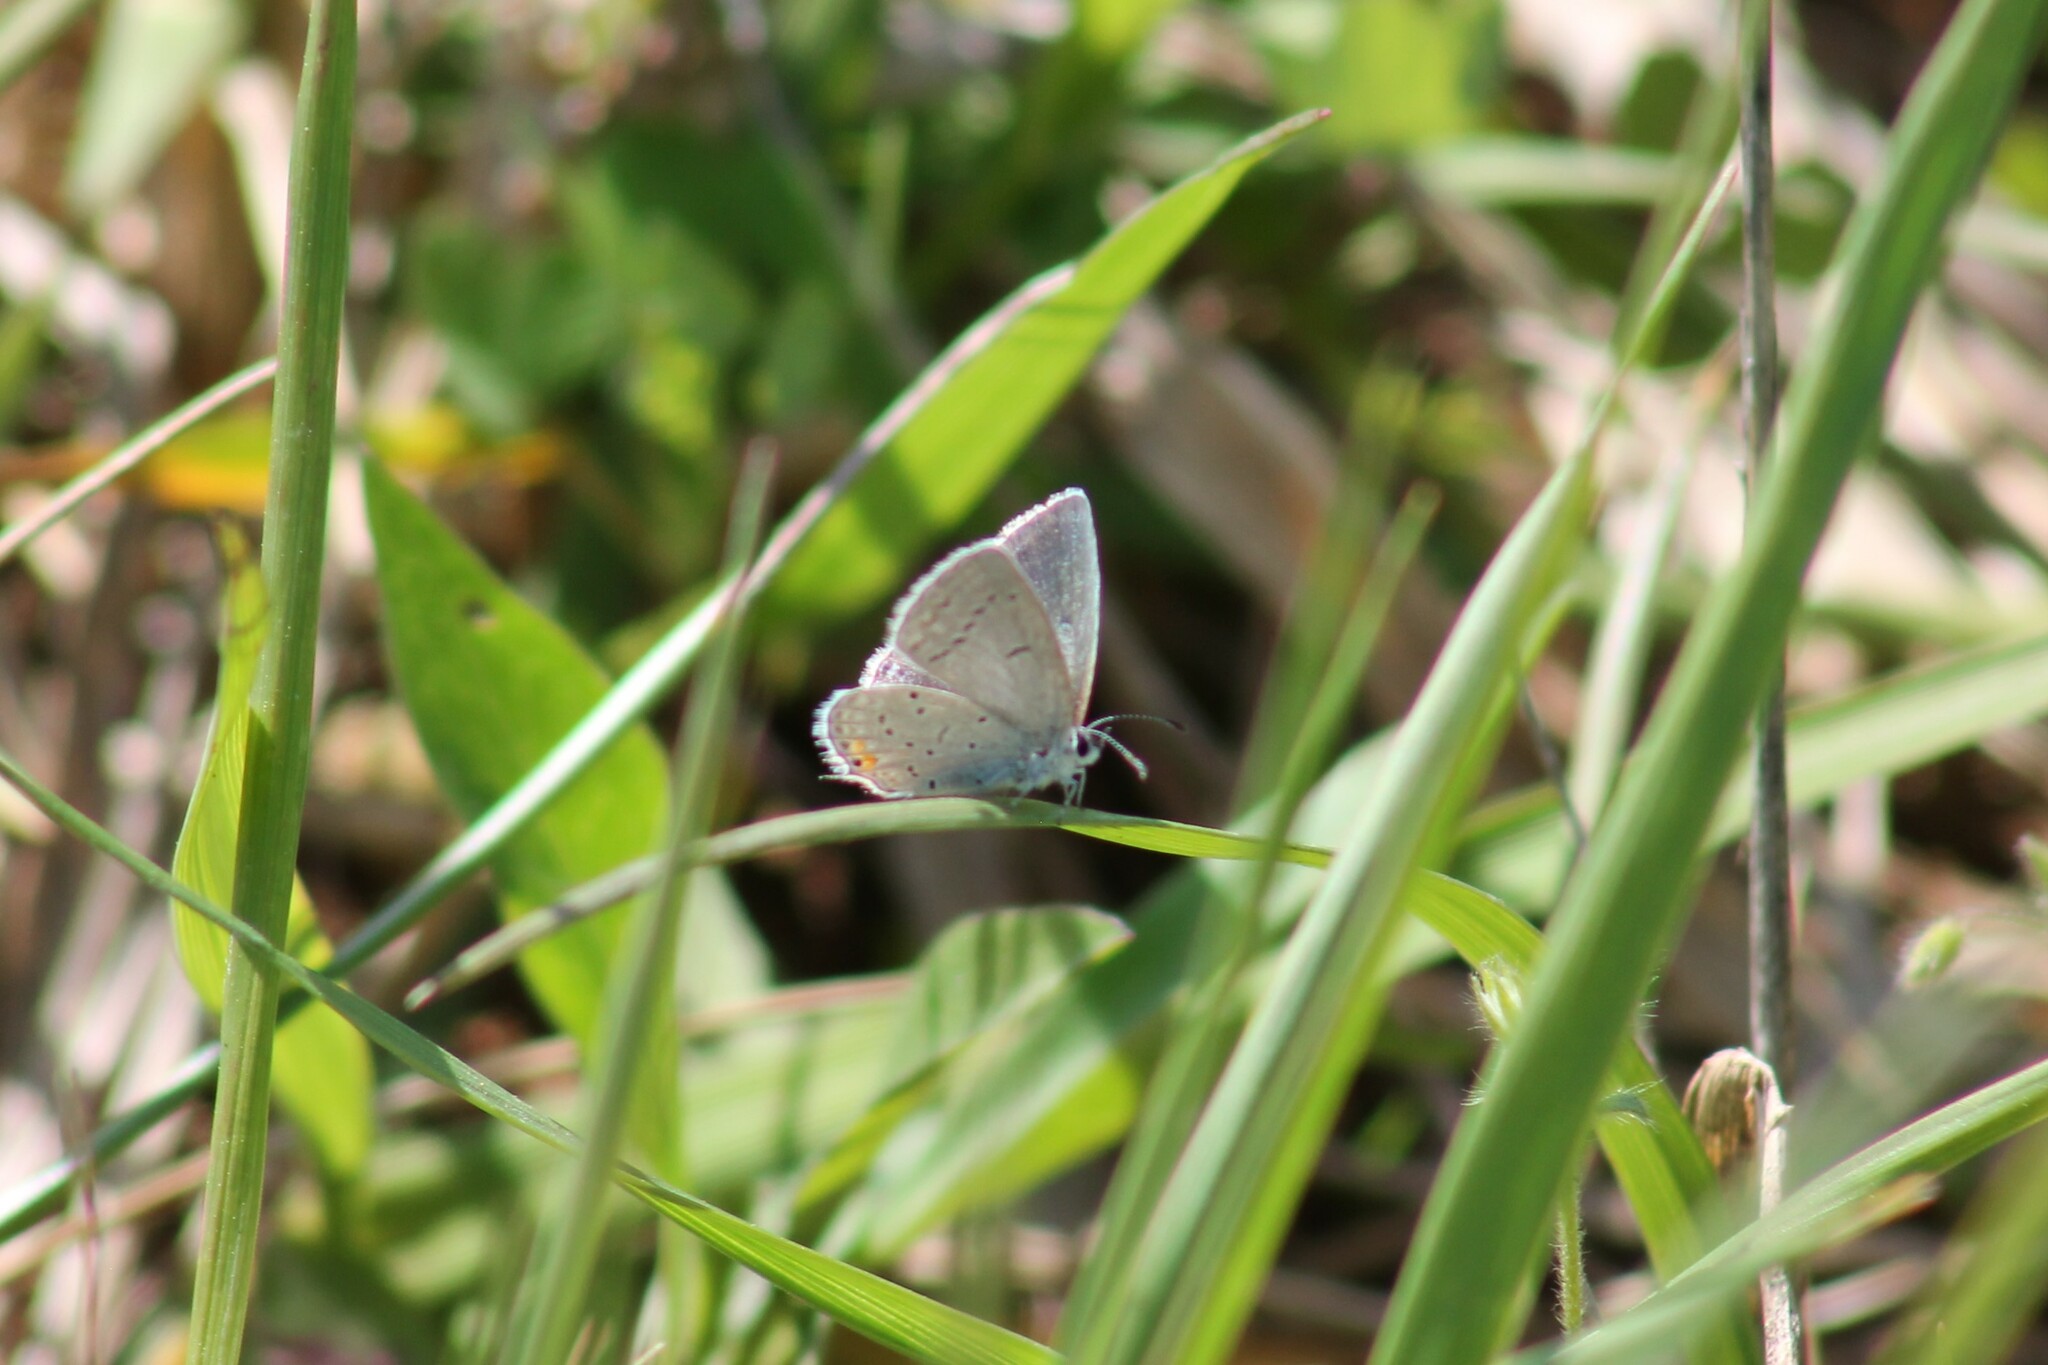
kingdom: Animalia
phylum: Arthropoda
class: Insecta
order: Lepidoptera
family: Lycaenidae
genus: Elkalyce
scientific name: Elkalyce comyntas
